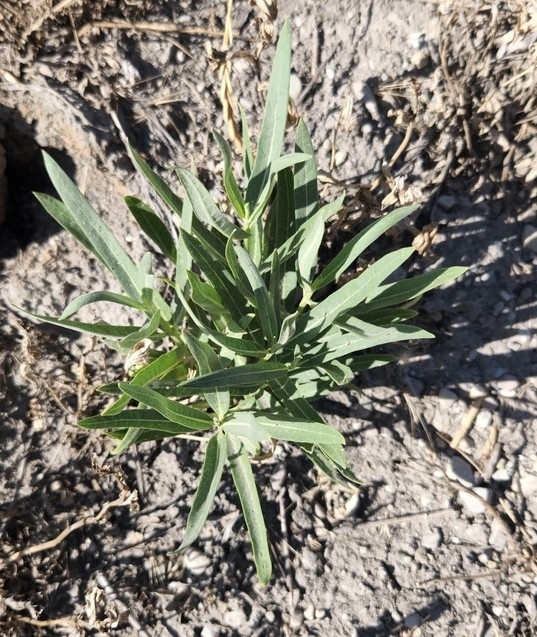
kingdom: Plantae
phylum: Tracheophyta
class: Magnoliopsida
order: Gentianales
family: Apocynaceae
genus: Nerium
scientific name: Nerium oleander
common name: Oleander
